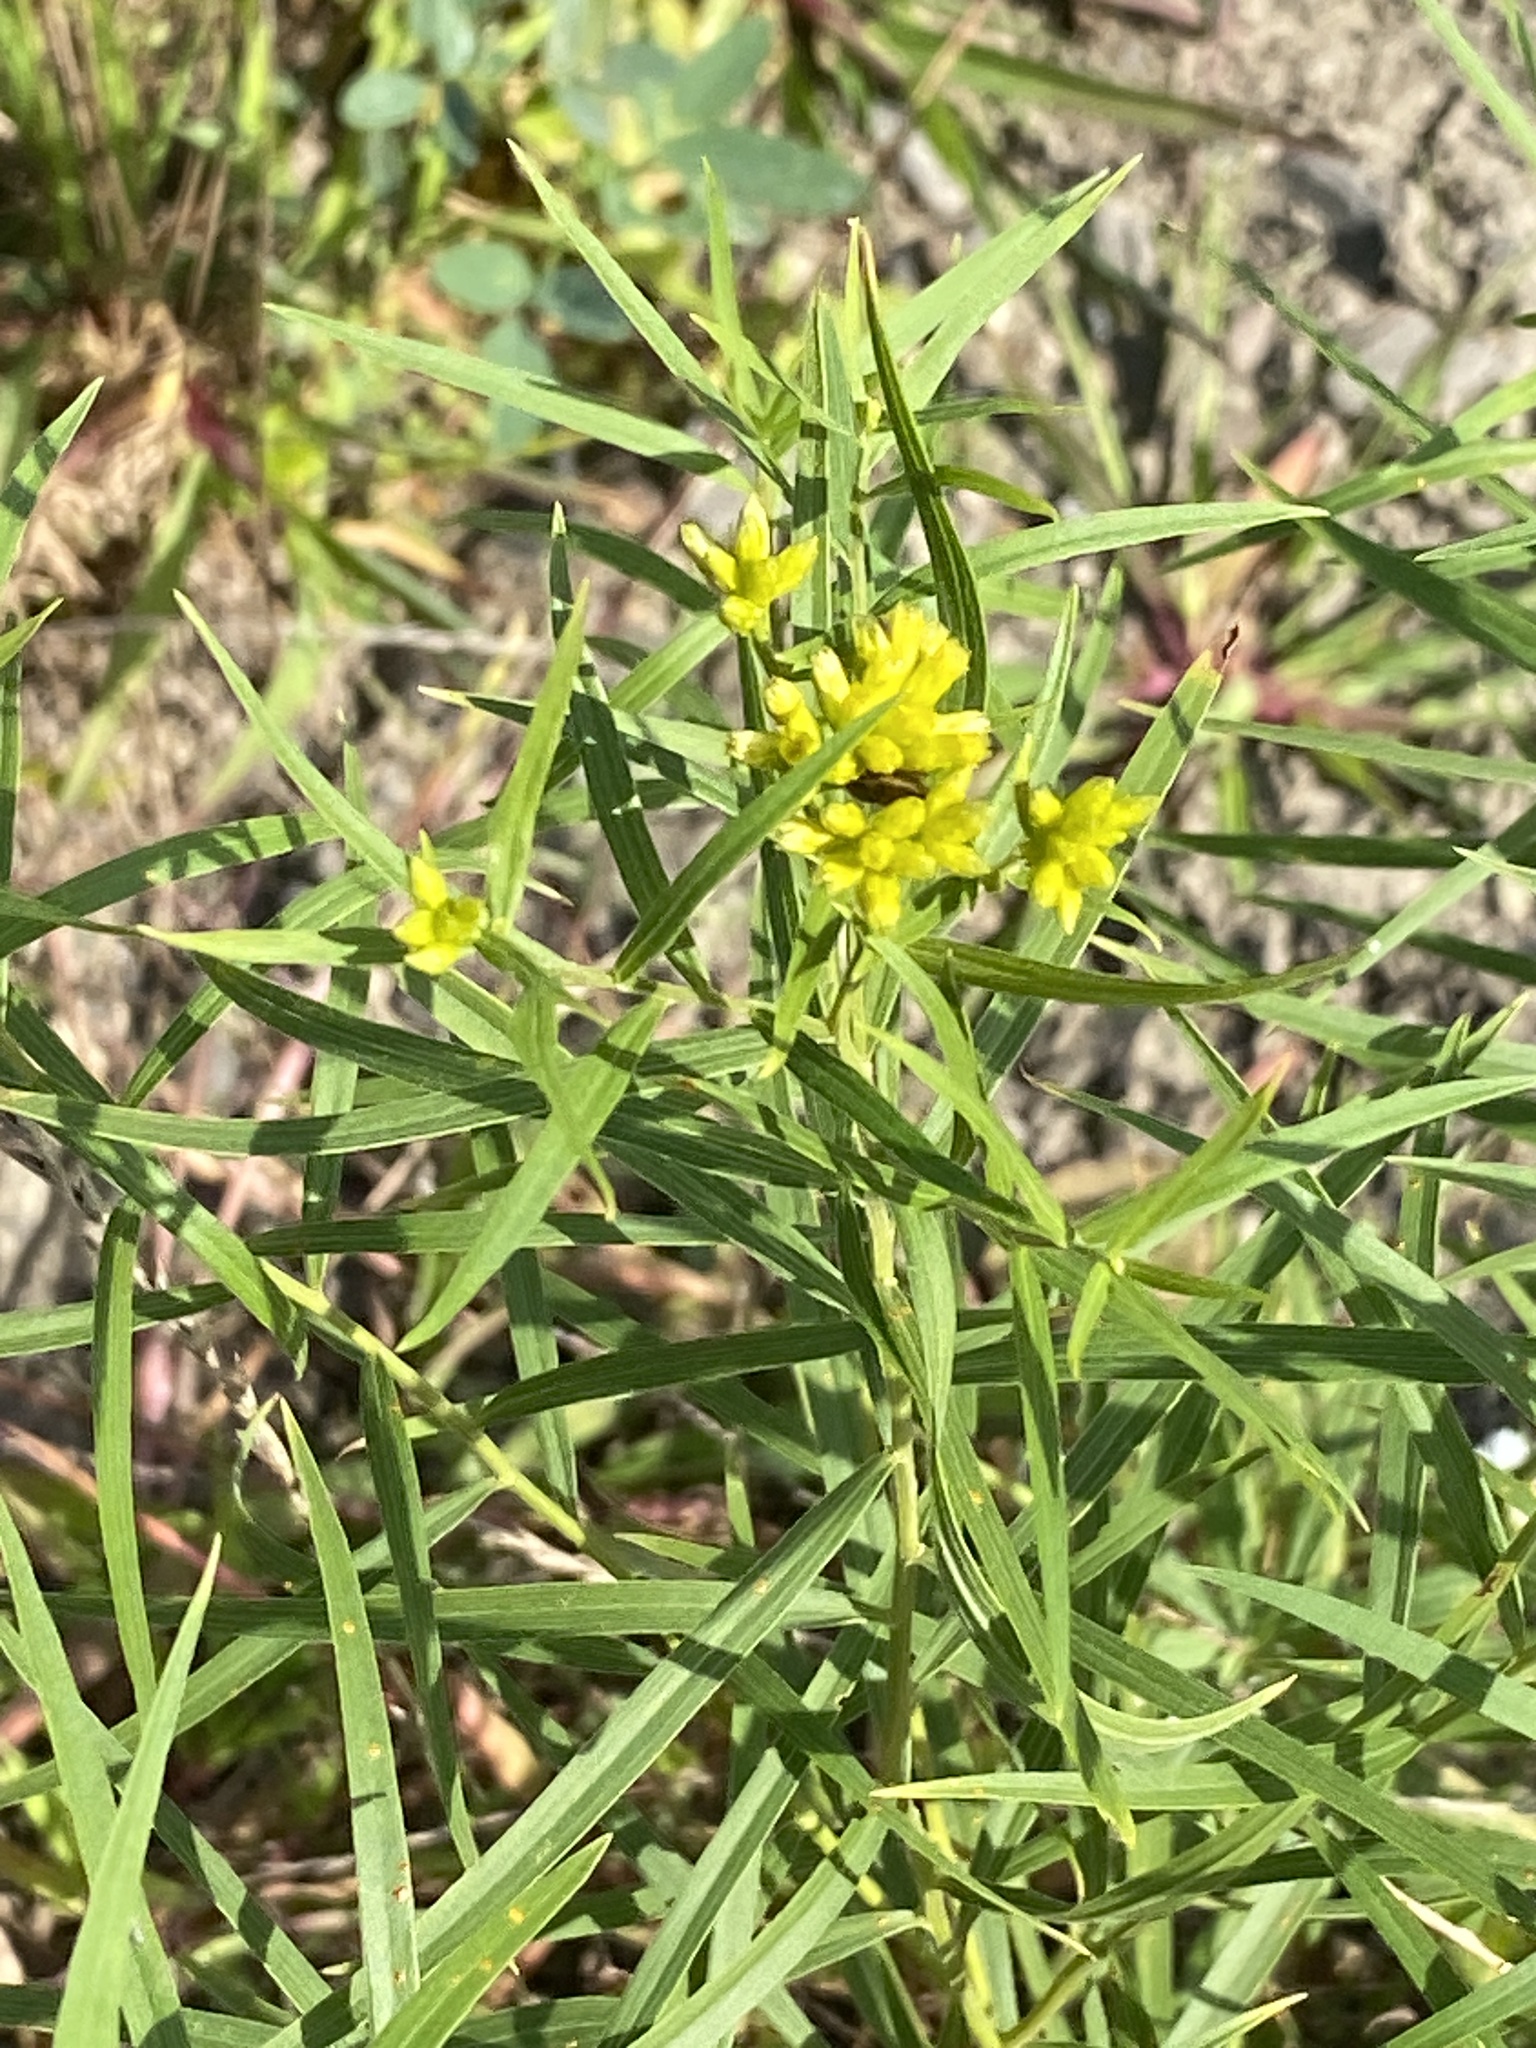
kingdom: Plantae
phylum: Tracheophyta
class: Magnoliopsida
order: Asterales
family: Asteraceae
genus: Euthamia
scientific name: Euthamia graminifolia
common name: Common goldentop
